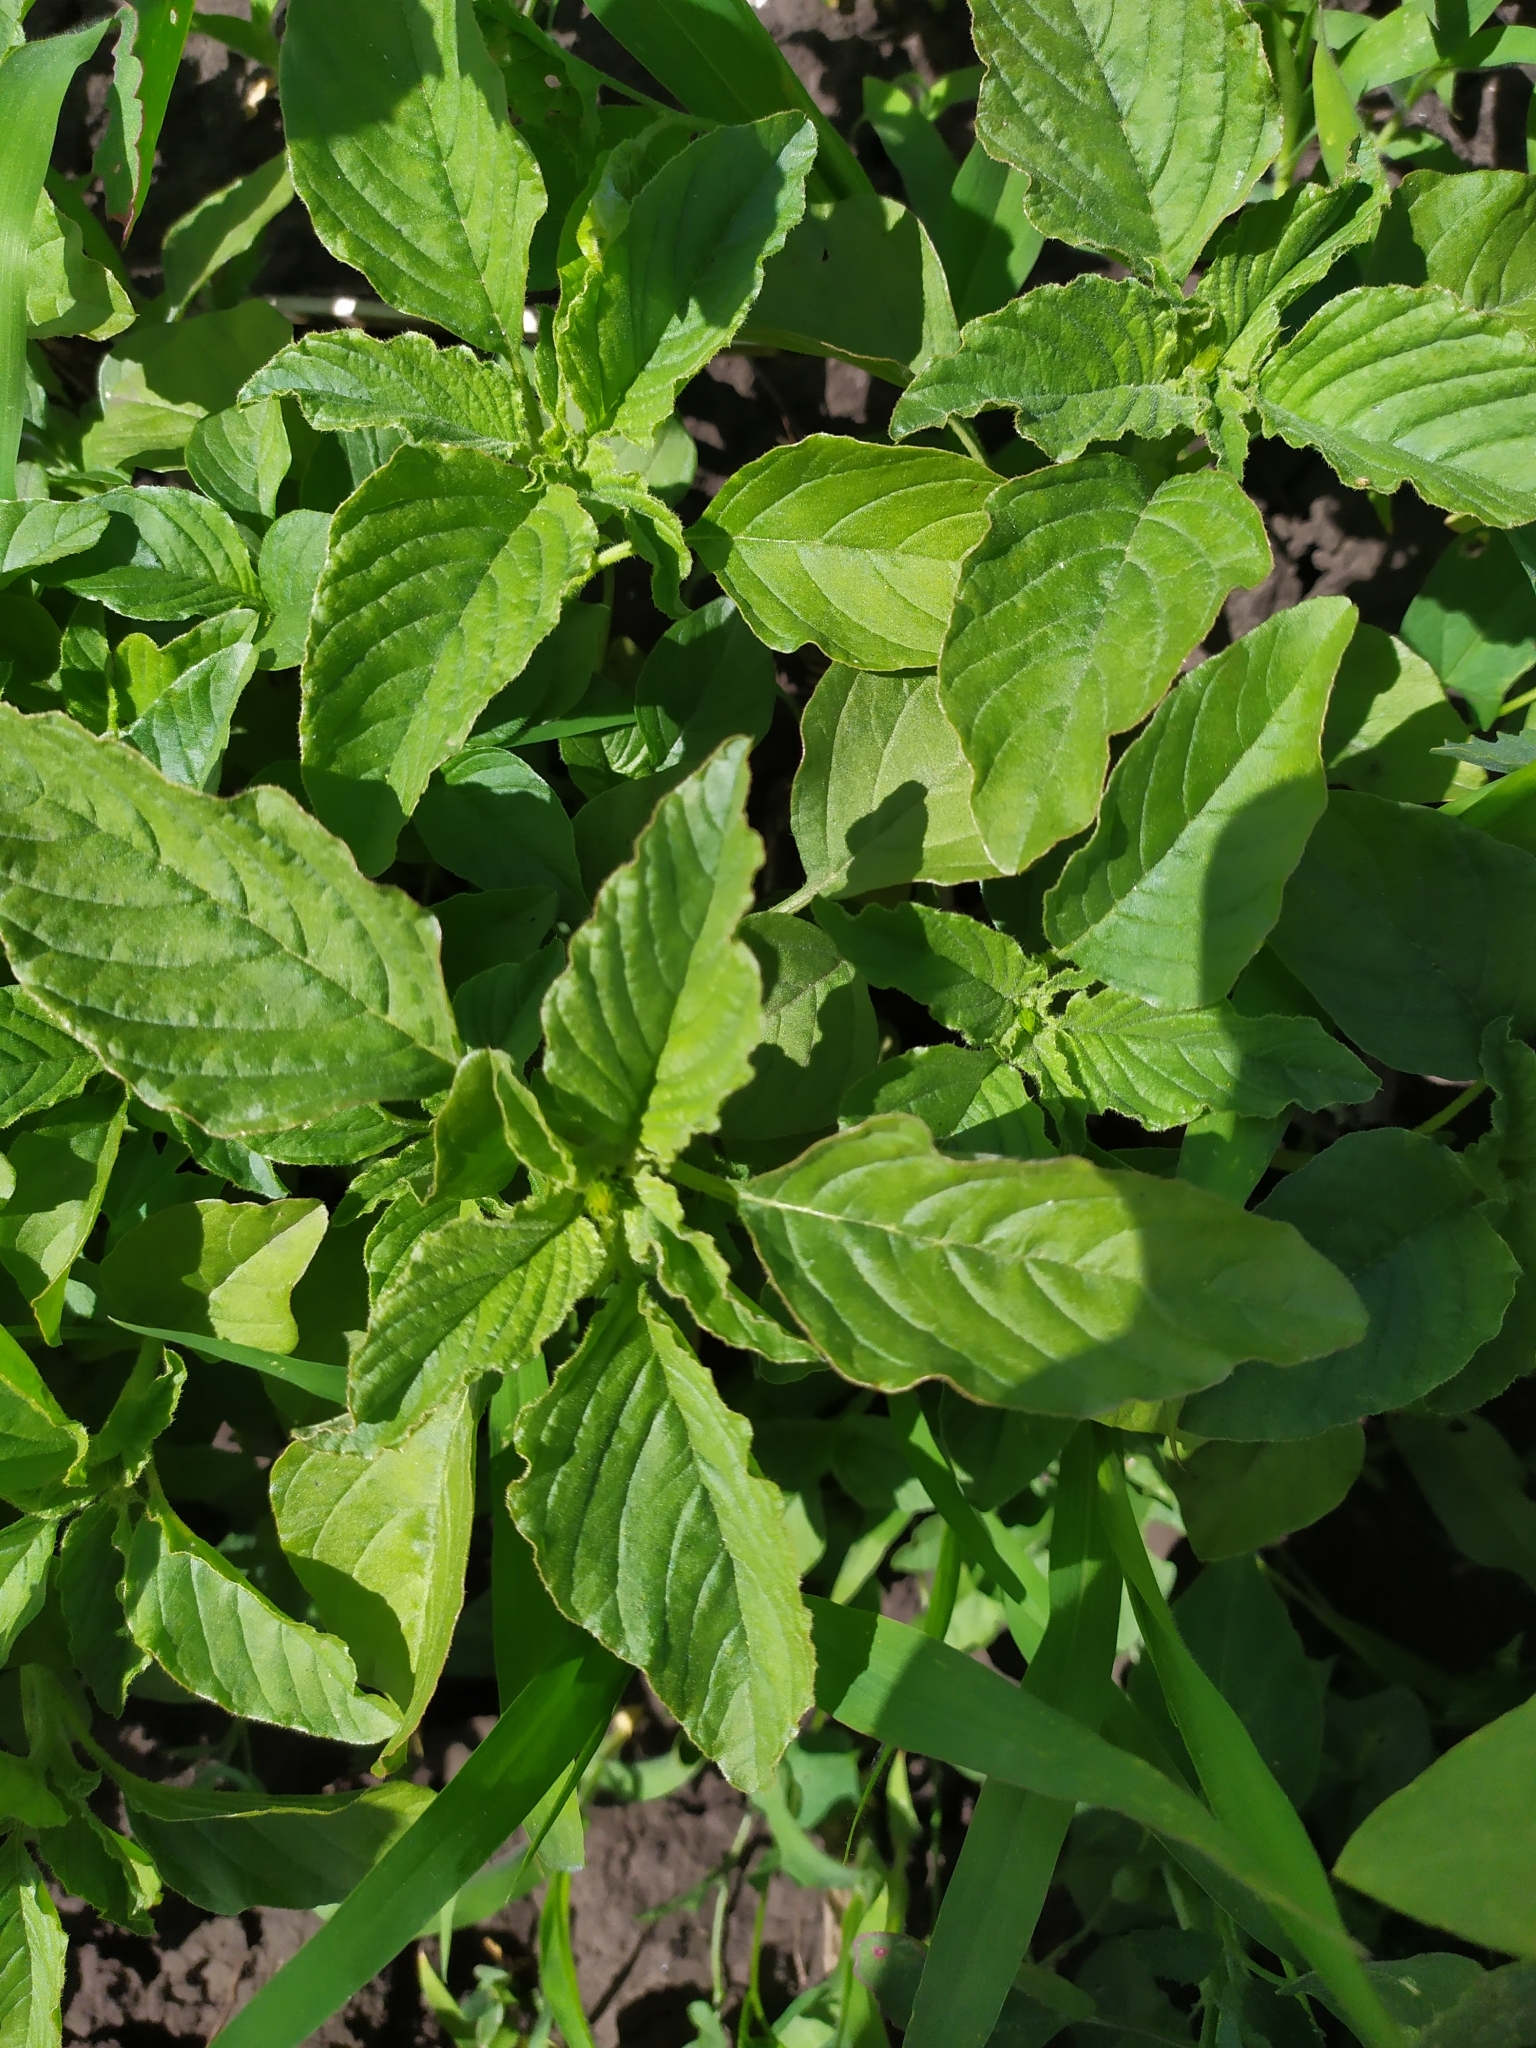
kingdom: Plantae
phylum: Tracheophyta
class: Magnoliopsida
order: Caryophyllales
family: Amaranthaceae
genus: Amaranthus
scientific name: Amaranthus retroflexus
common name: Redroot amaranth
